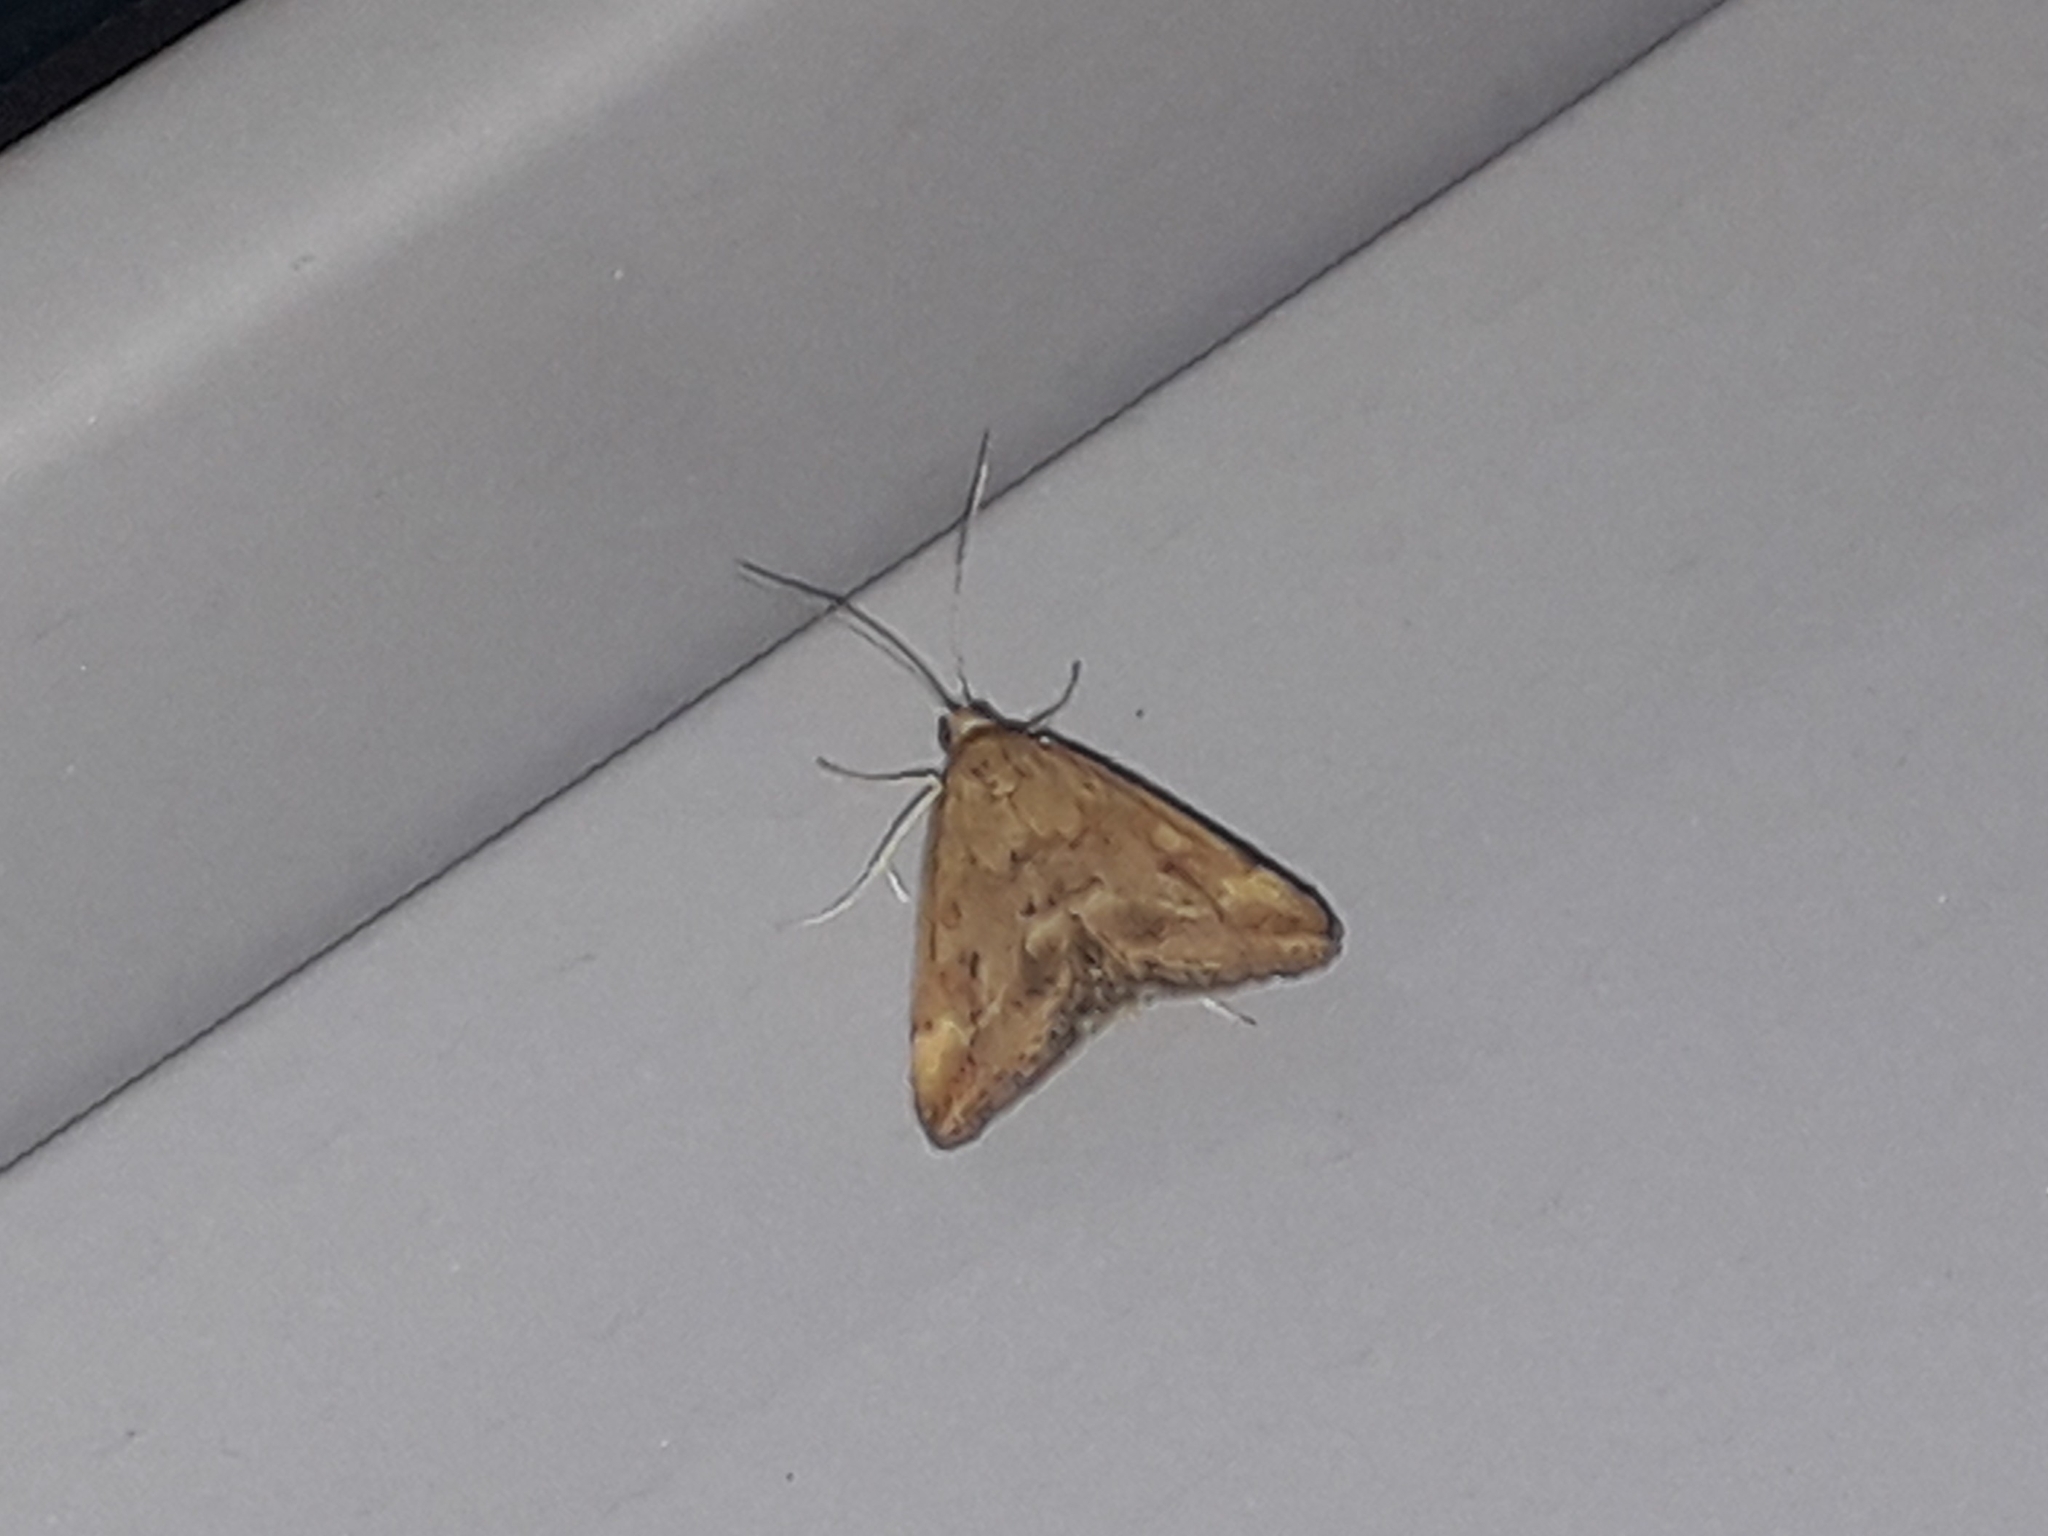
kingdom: Animalia
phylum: Arthropoda
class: Insecta
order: Lepidoptera
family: Crambidae
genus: Pyrausta
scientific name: Pyrausta despicata
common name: Straw-barred pearl
